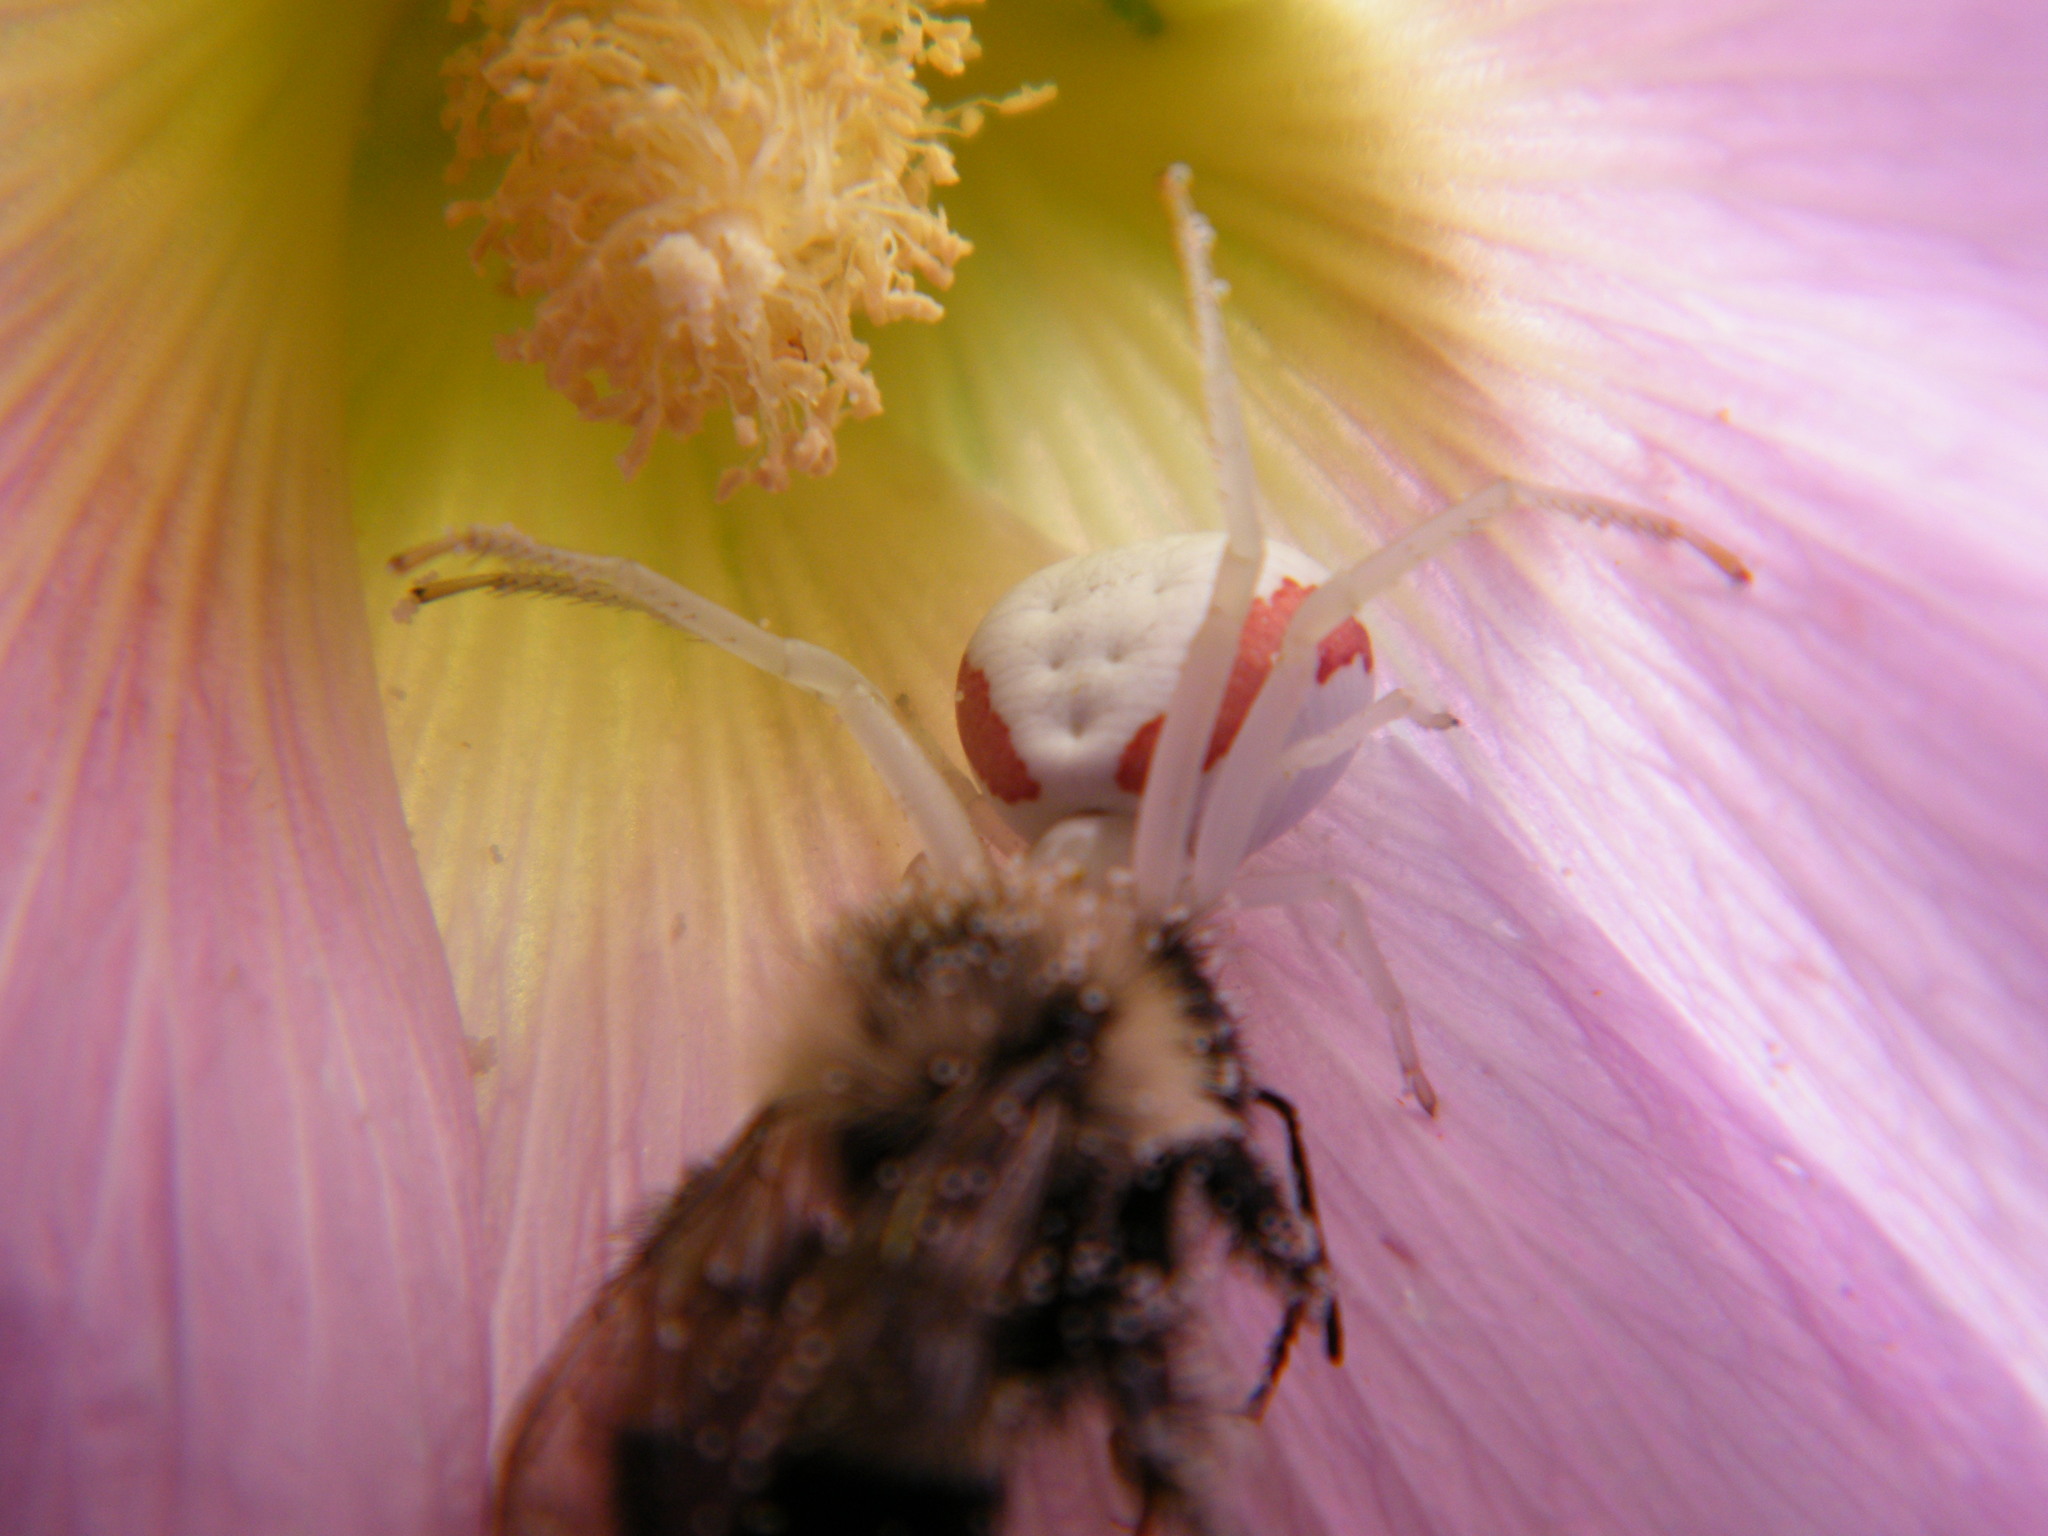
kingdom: Animalia
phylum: Arthropoda
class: Arachnida
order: Araneae
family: Thomisidae
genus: Misumena
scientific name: Misumena vatia
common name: Goldenrod crab spider
